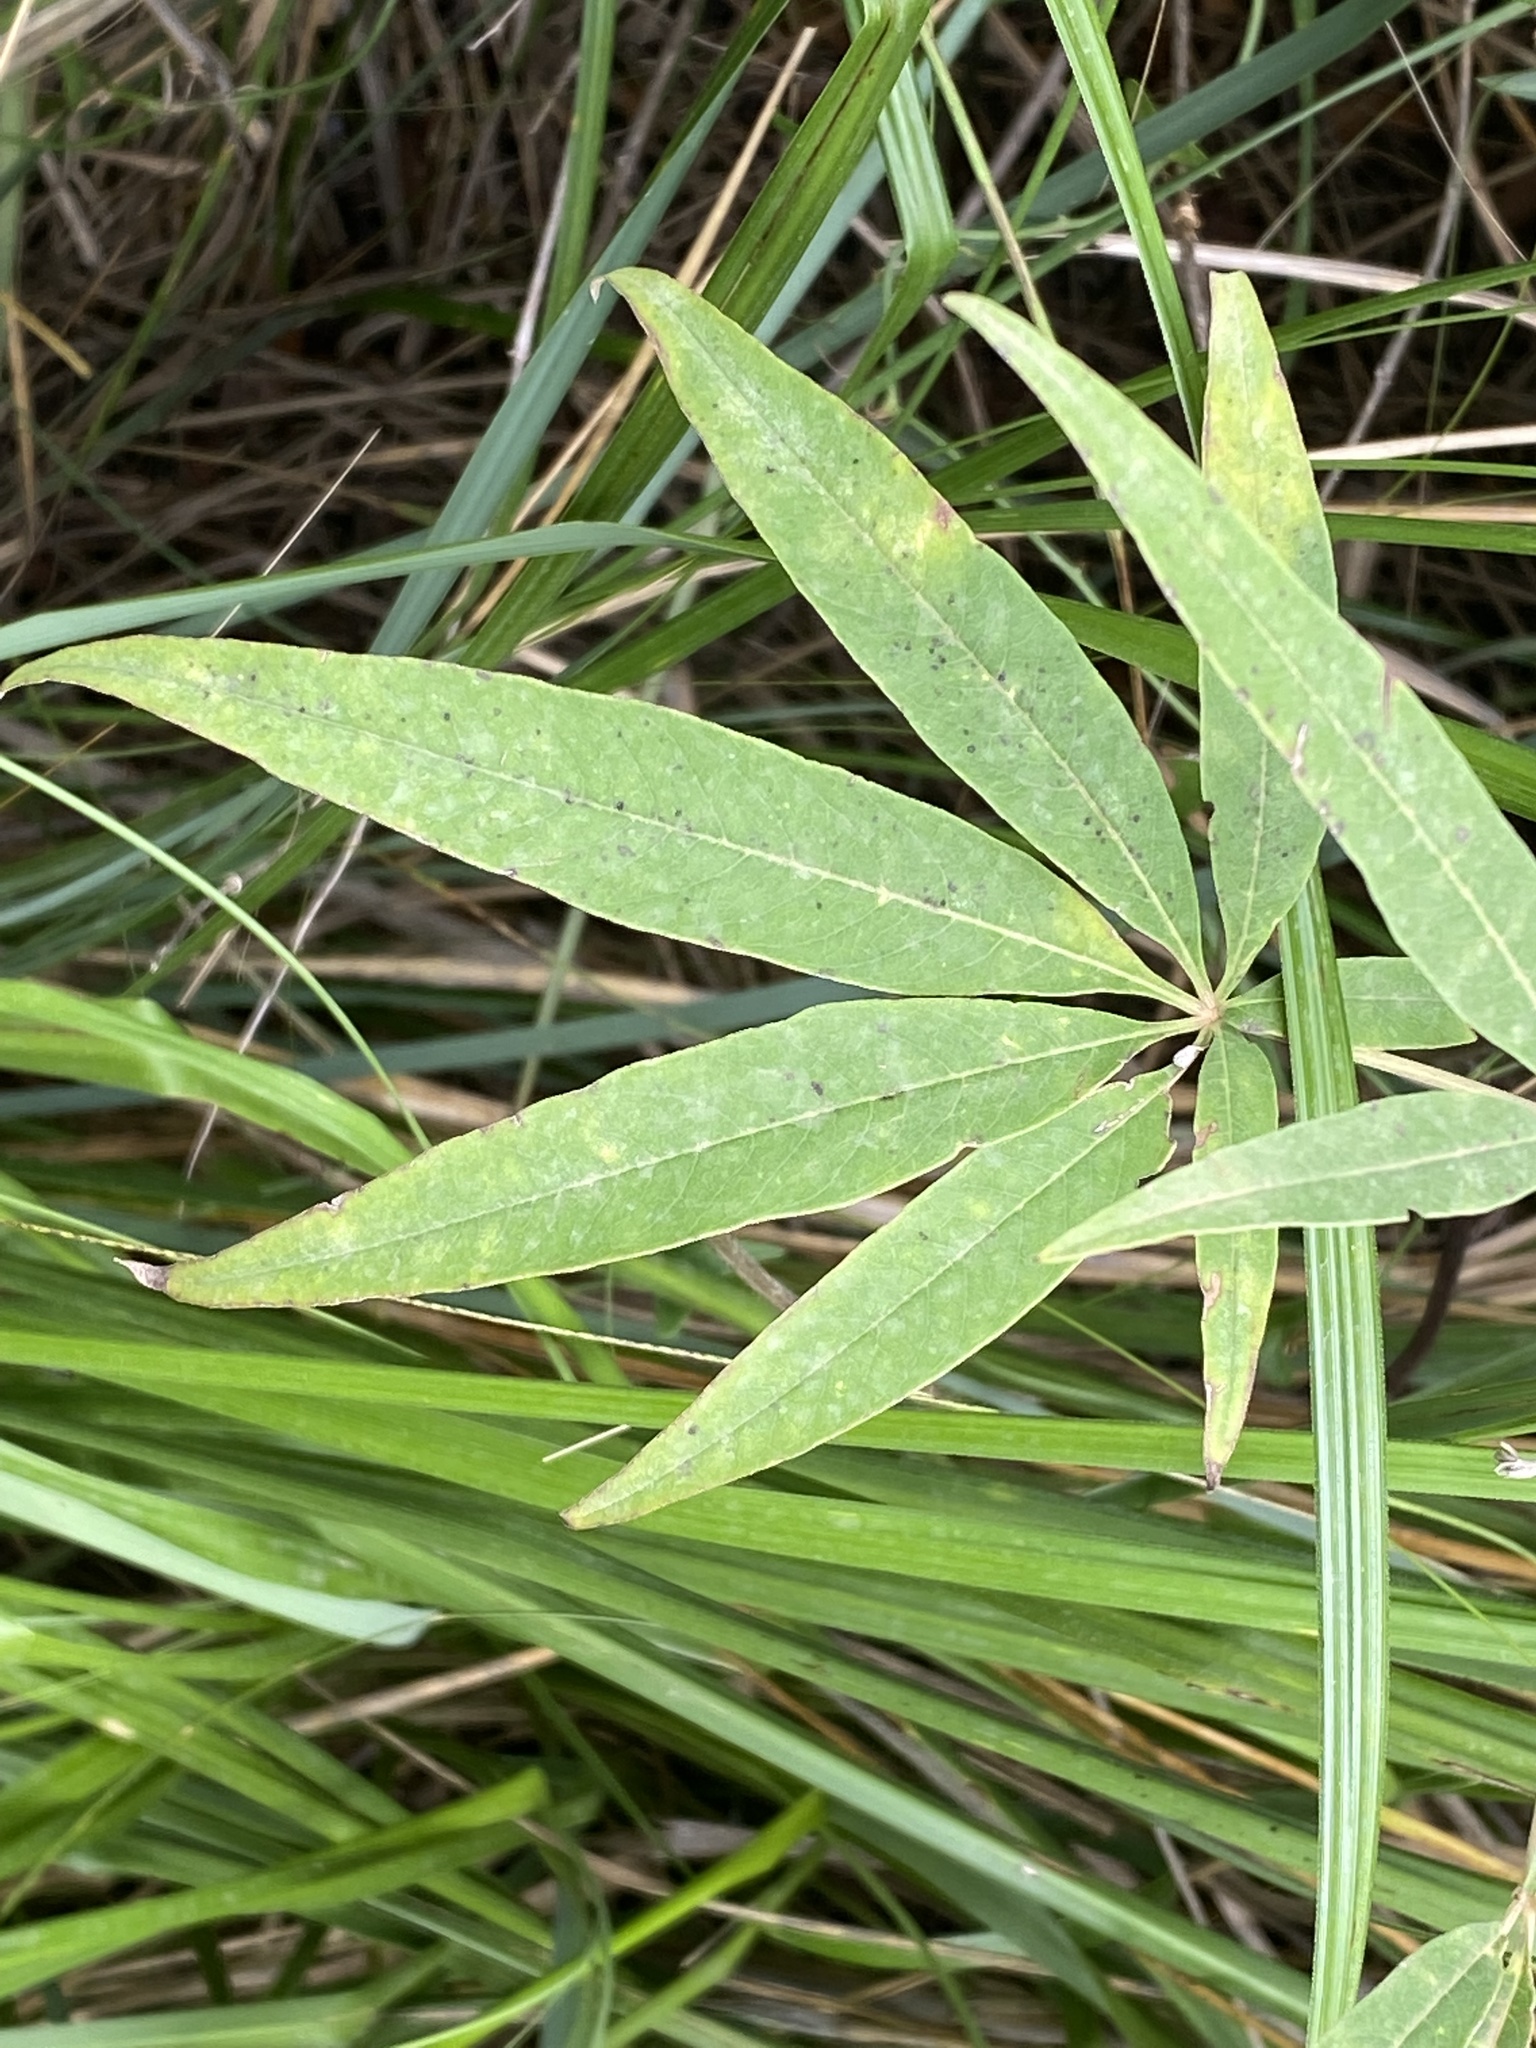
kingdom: Plantae
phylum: Tracheophyta
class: Magnoliopsida
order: Lamiales
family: Lamiaceae
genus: Vitex
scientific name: Vitex agnus-castus
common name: Chasteberry
